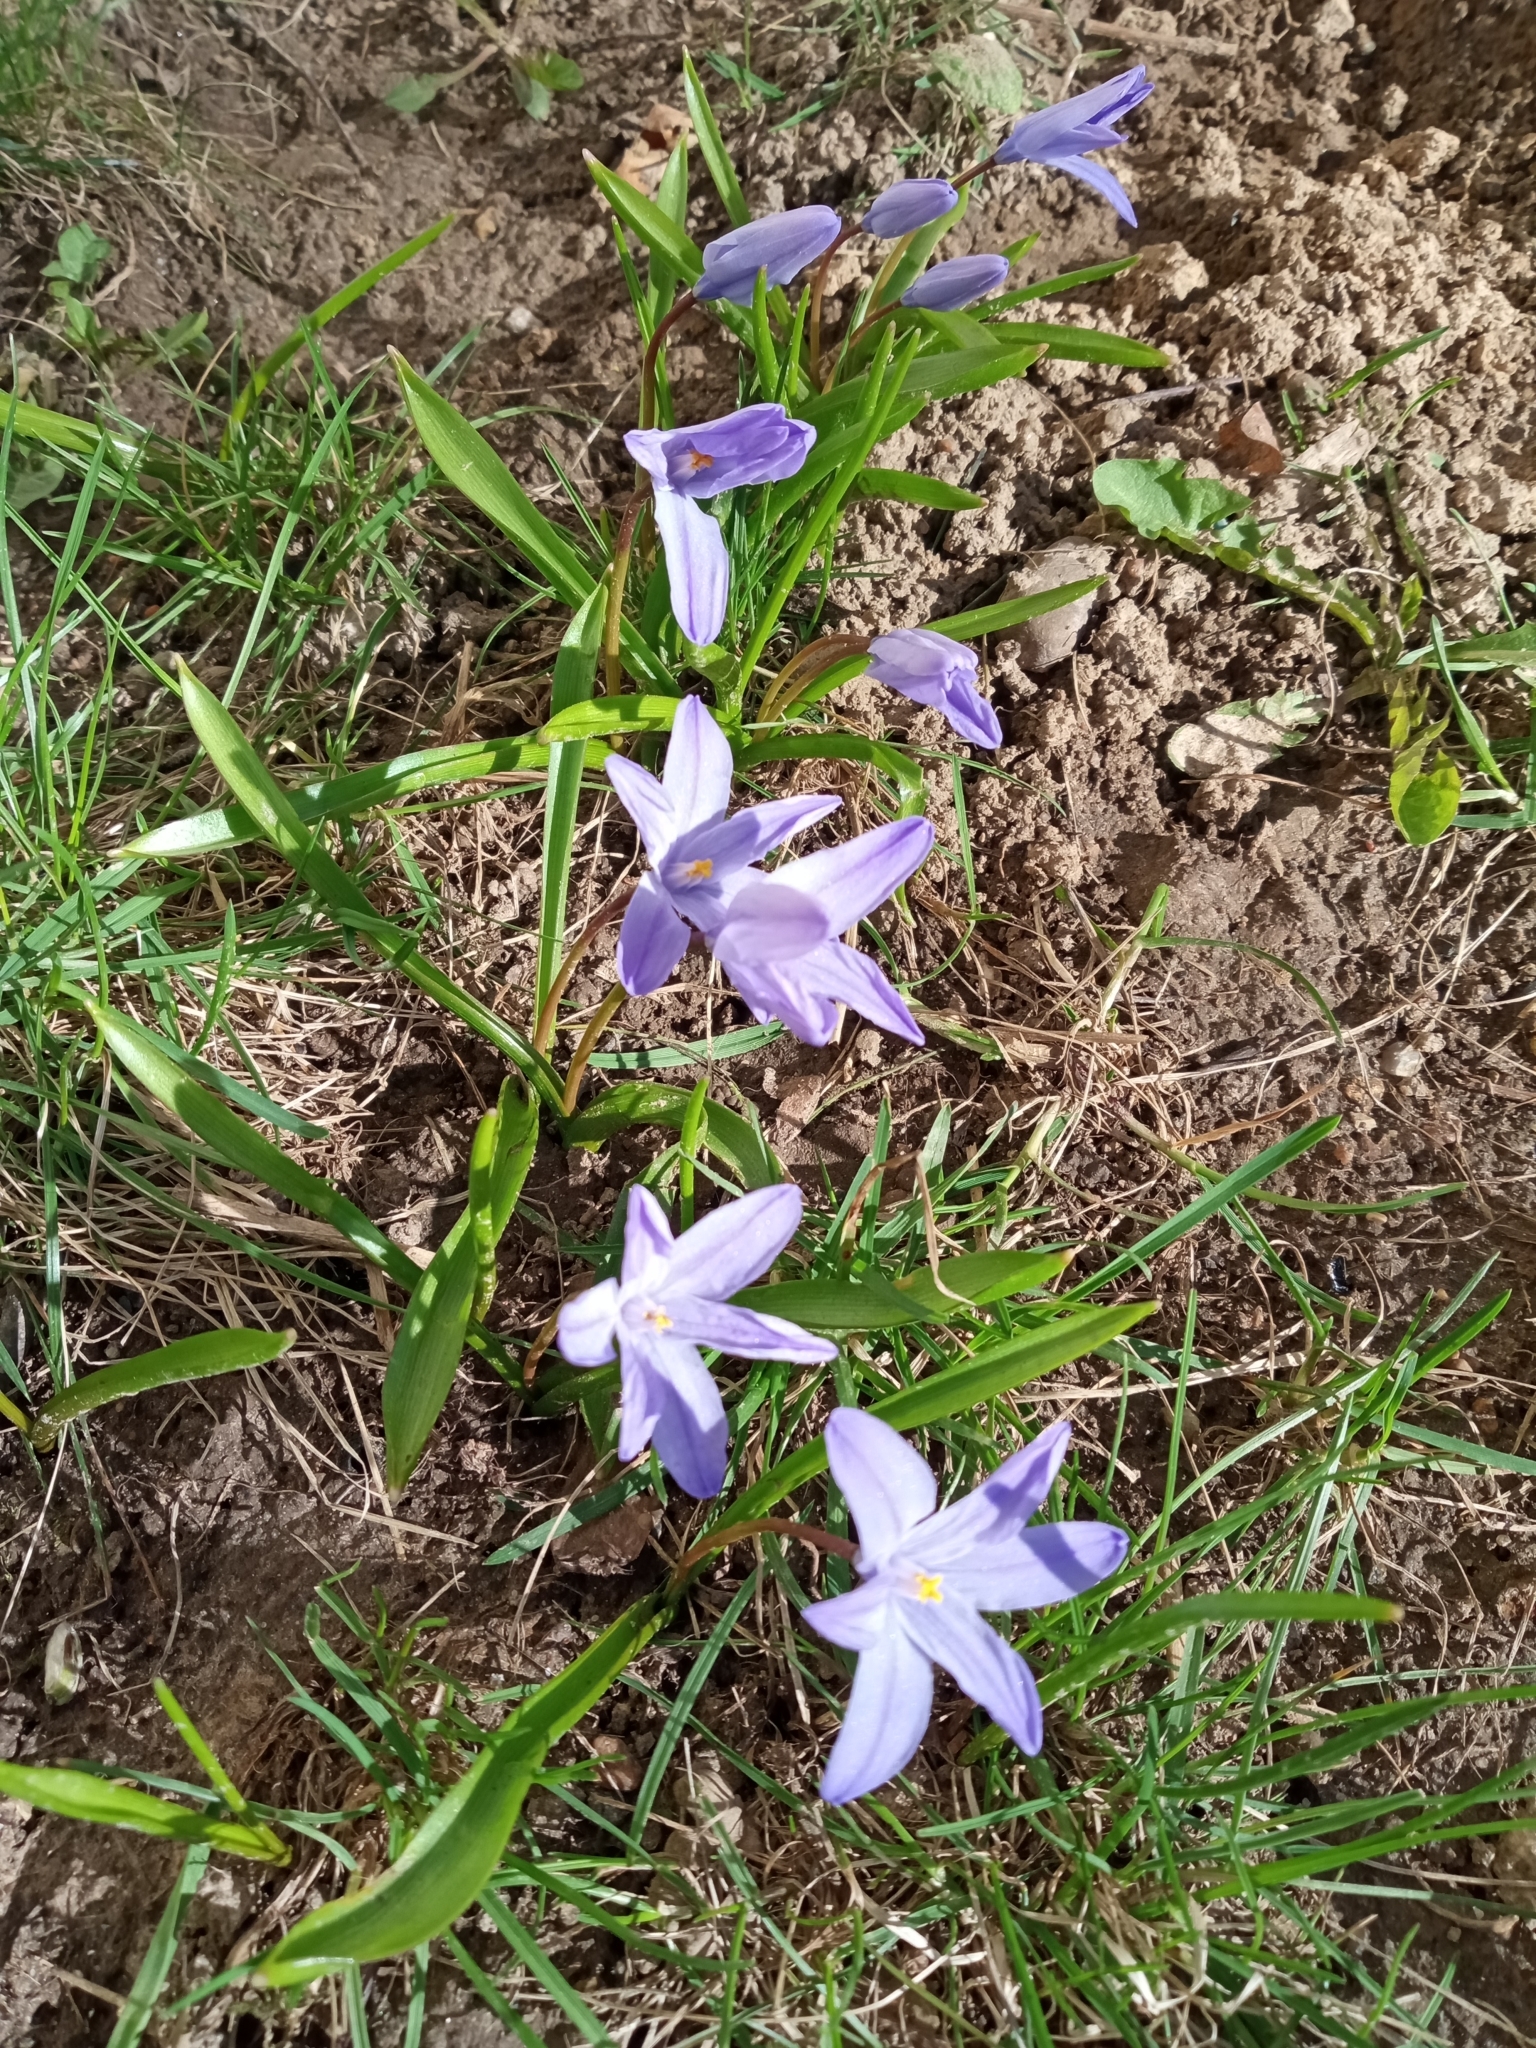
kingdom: Plantae
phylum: Tracheophyta
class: Liliopsida
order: Asparagales
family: Asparagaceae
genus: Scilla
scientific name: Scilla luciliae
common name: Boissier's glory-of-the-snow
